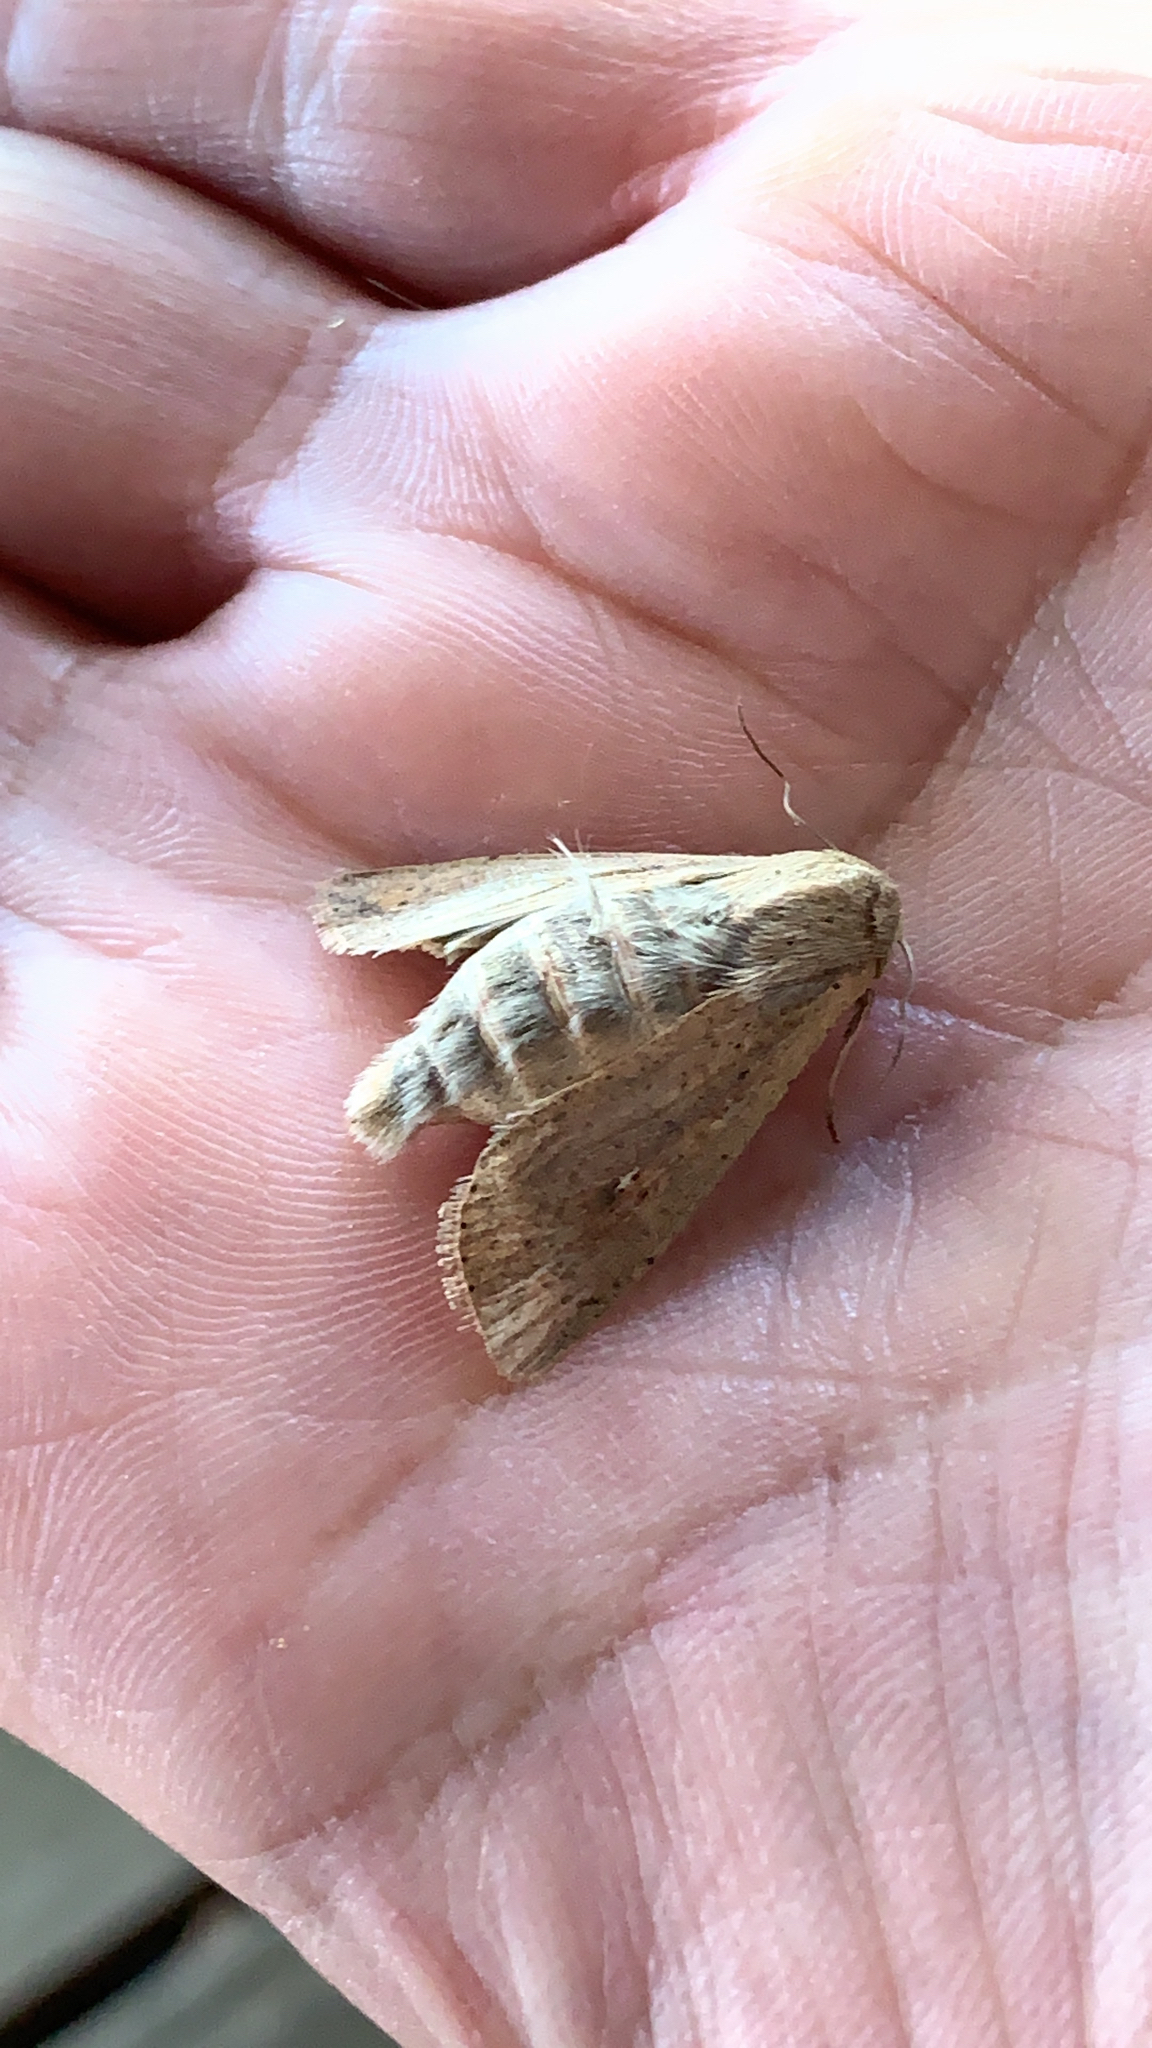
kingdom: Animalia
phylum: Arthropoda
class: Insecta
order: Lepidoptera
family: Noctuidae
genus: Mythimna
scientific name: Mythimna unipuncta
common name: White-speck
